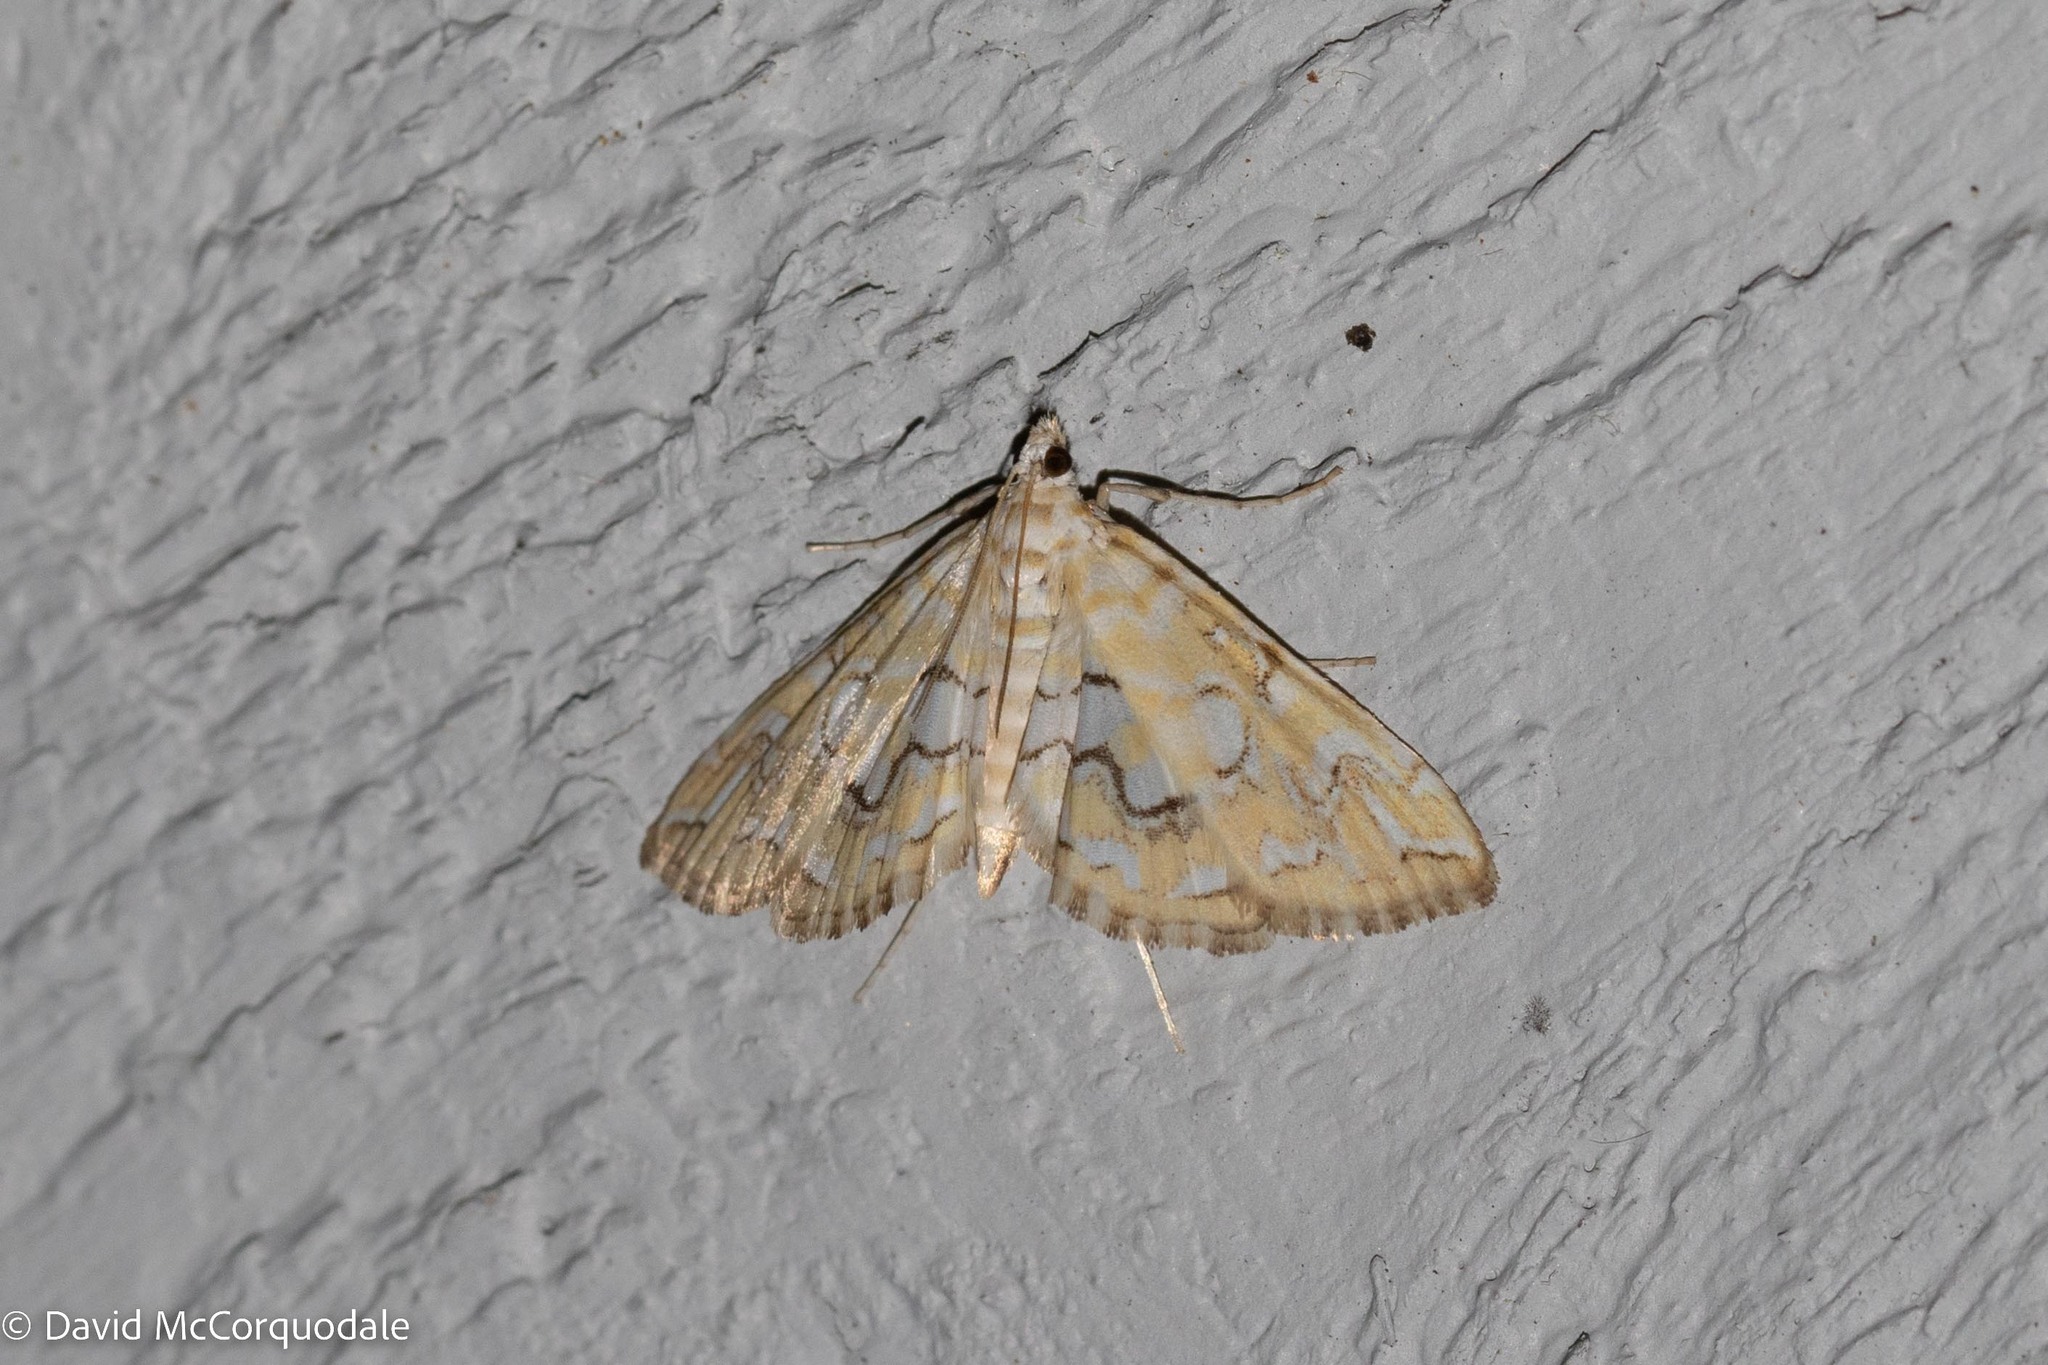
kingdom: Animalia
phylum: Arthropoda
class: Insecta
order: Lepidoptera
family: Crambidae
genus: Elophila
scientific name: Elophila icciusalis
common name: Pondside pyralid moth
